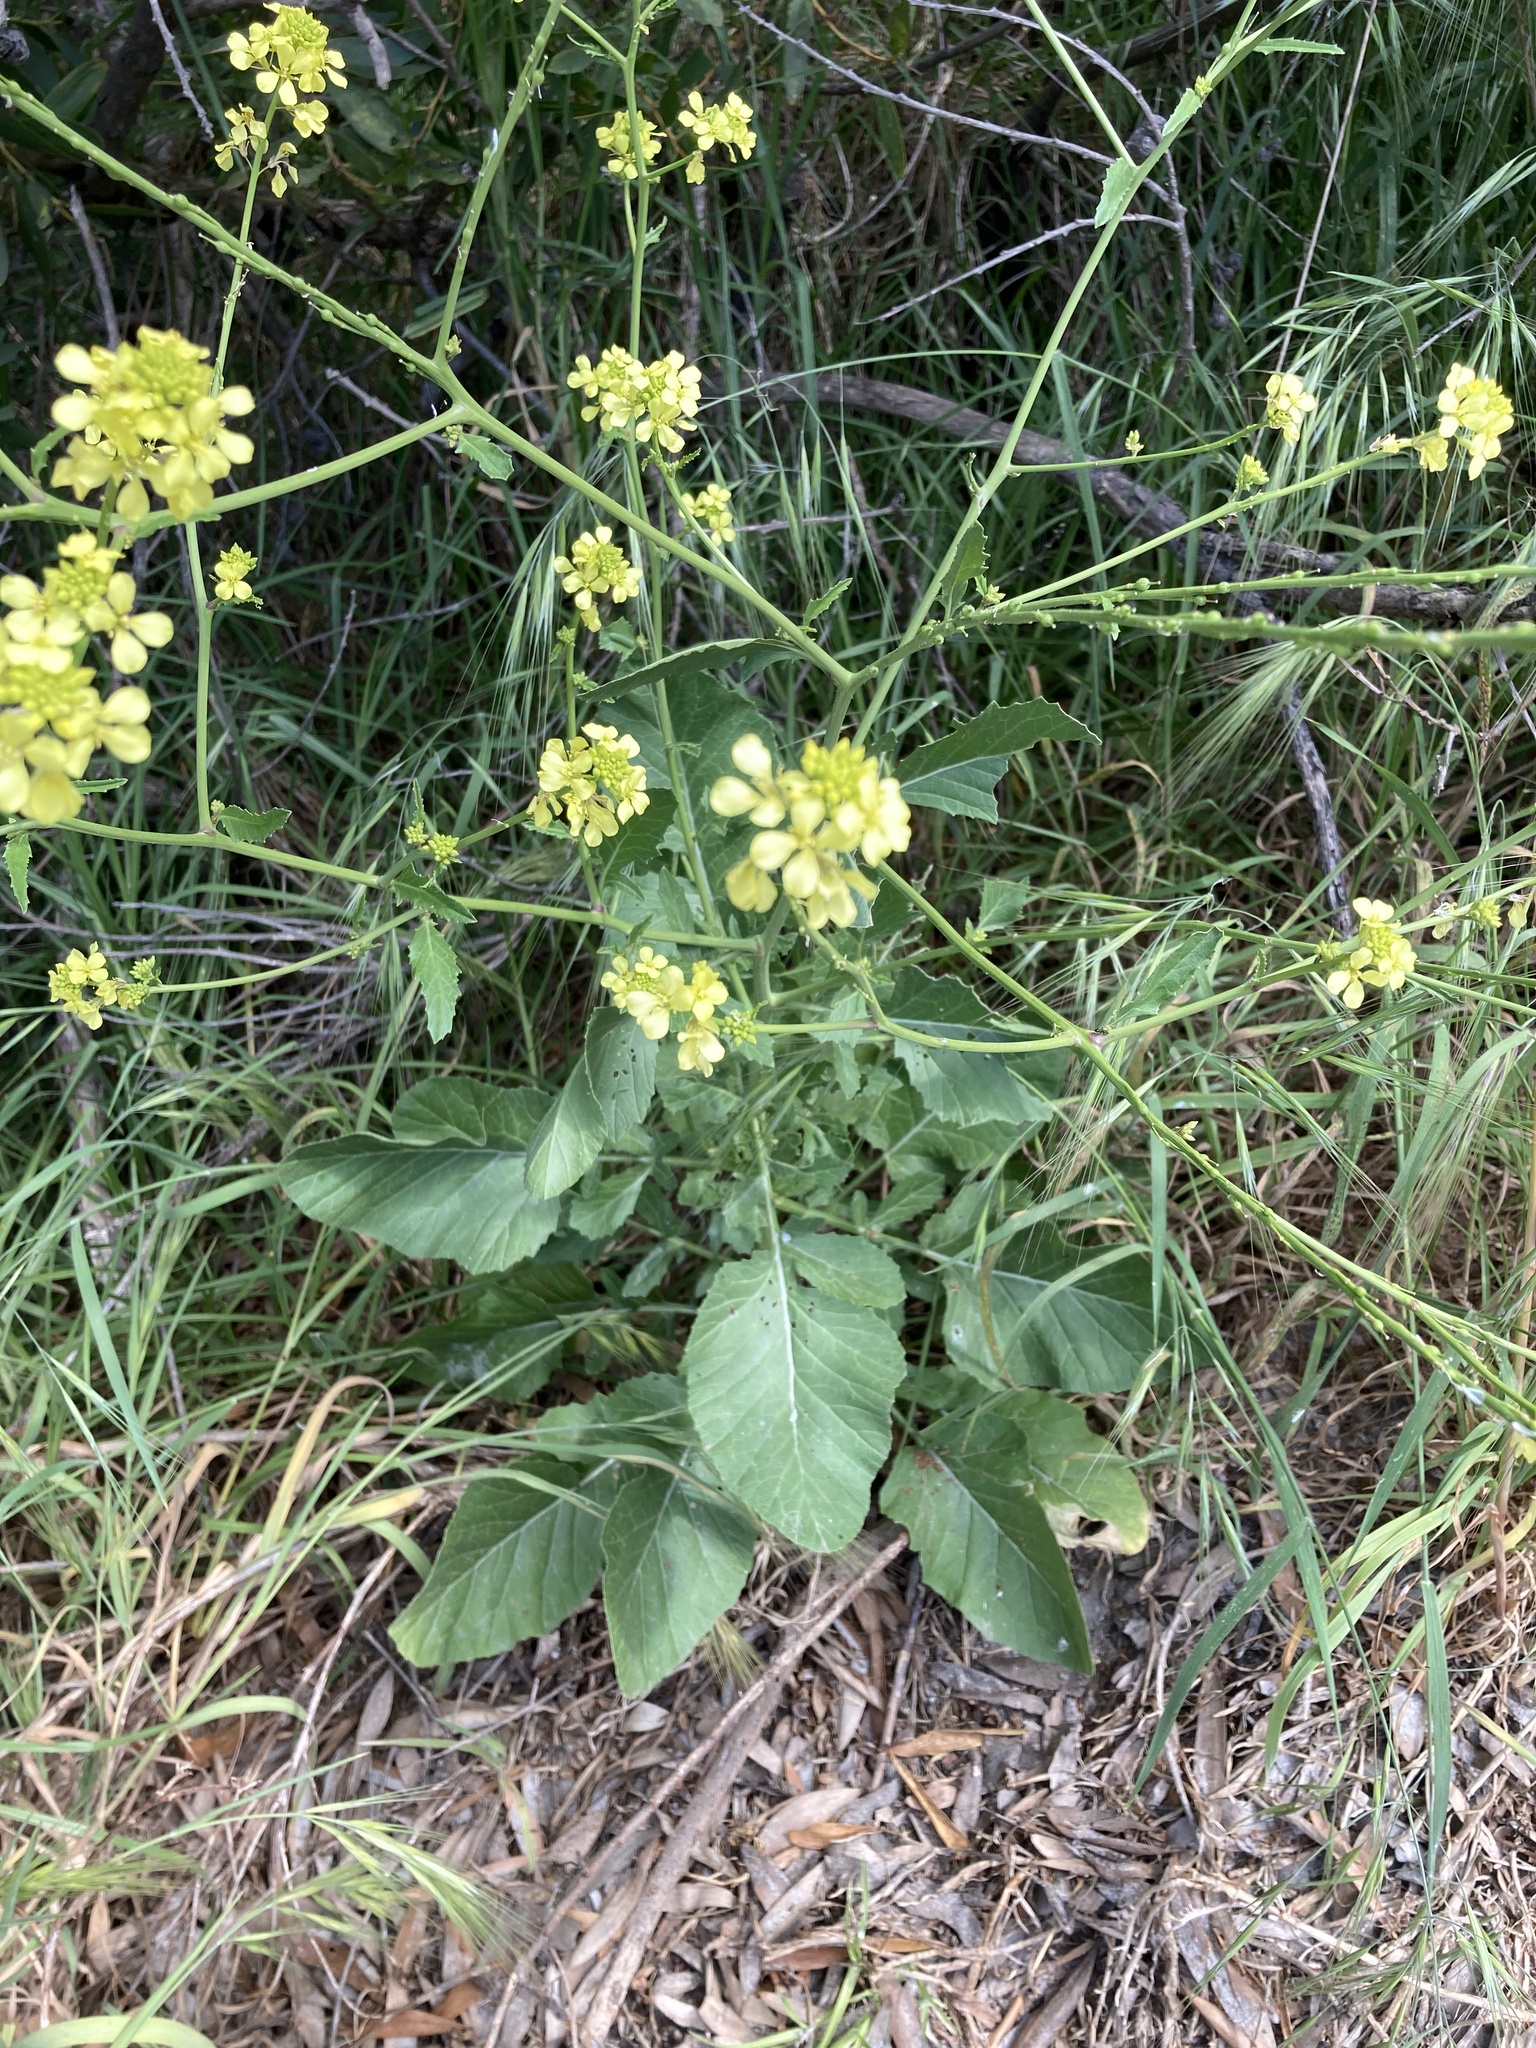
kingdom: Plantae
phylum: Tracheophyta
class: Magnoliopsida
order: Brassicales
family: Brassicaceae
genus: Rapistrum
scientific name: Rapistrum rugosum
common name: Annual bastardcabbage
